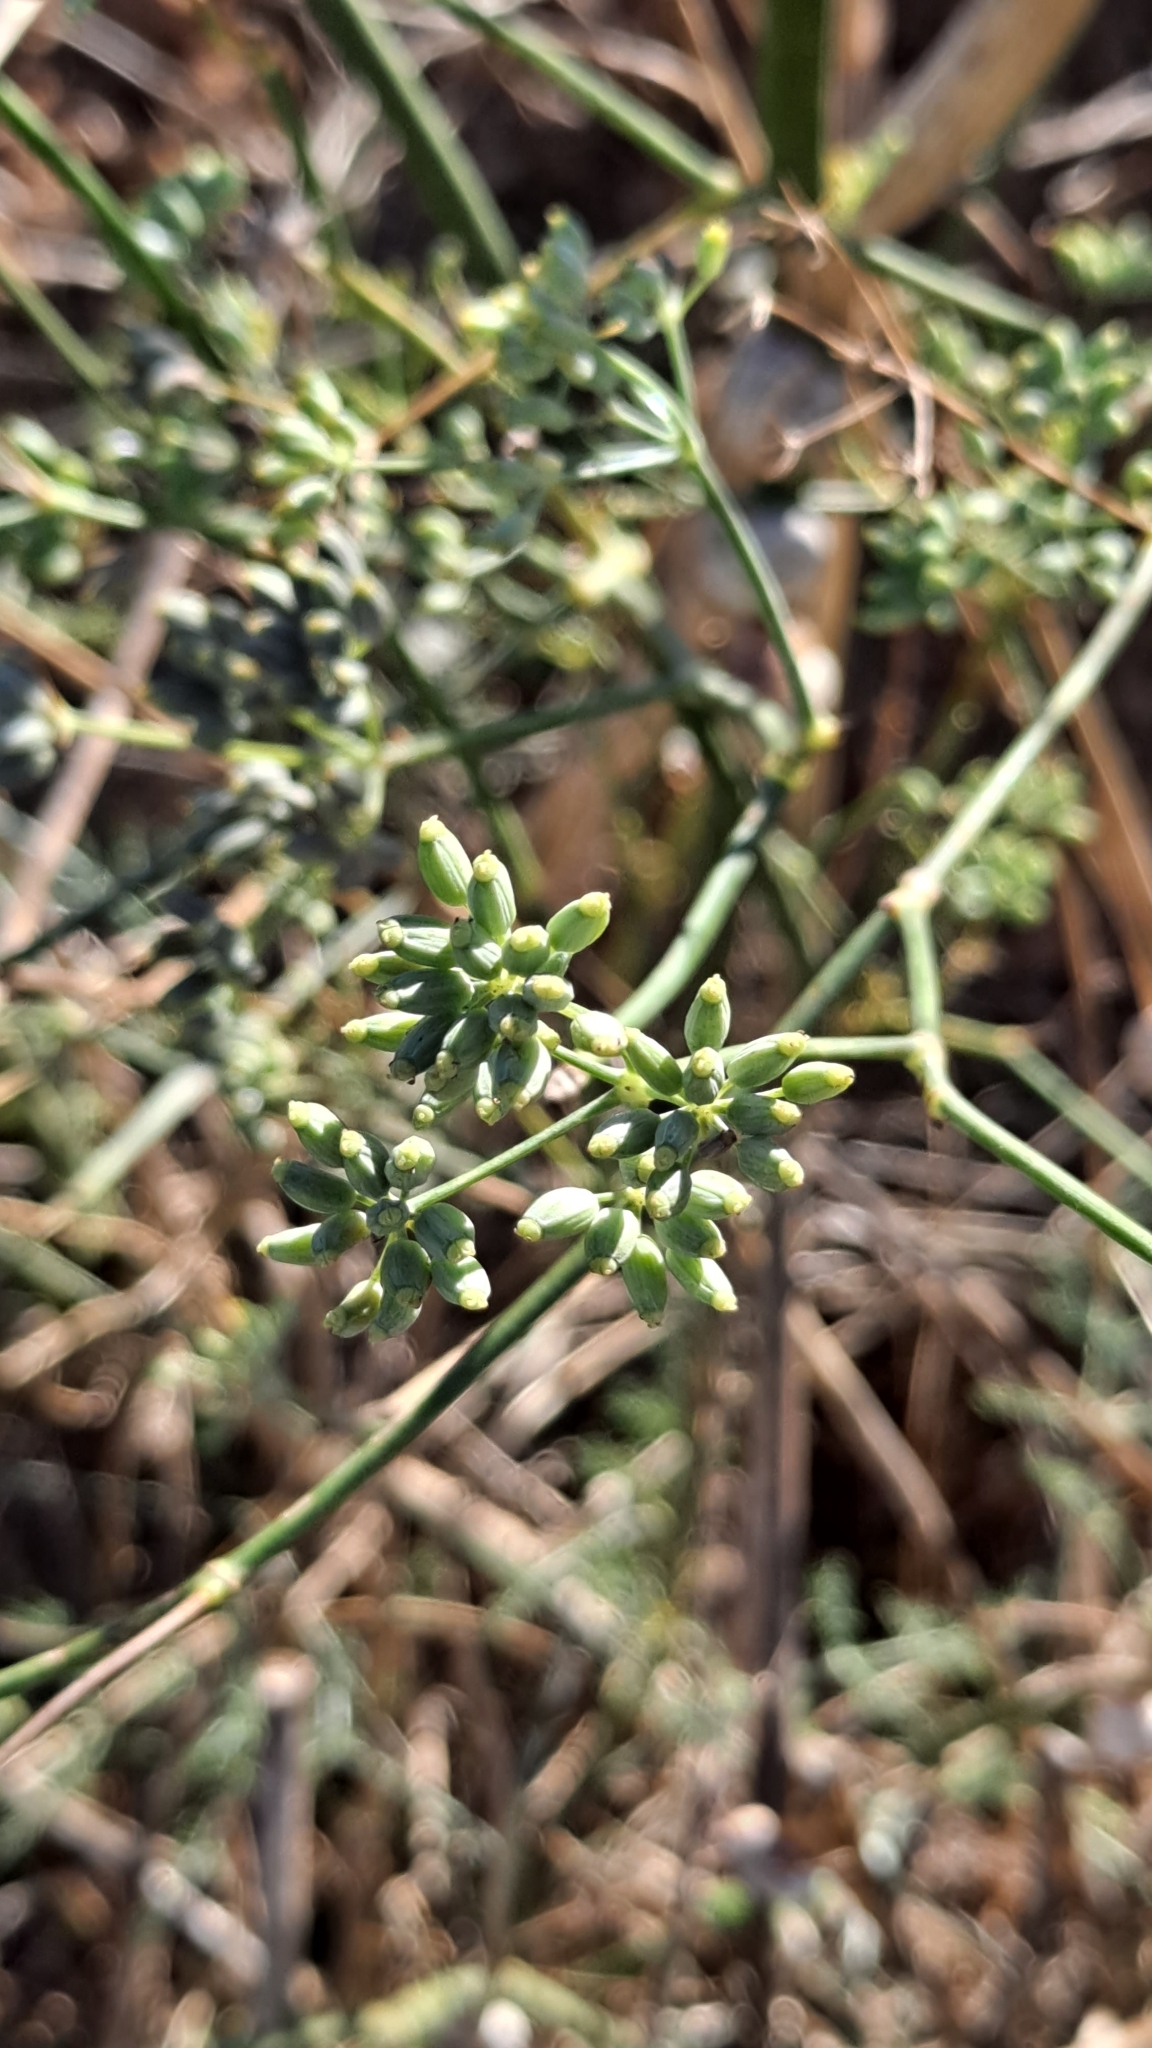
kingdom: Plantae
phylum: Tracheophyta
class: Magnoliopsida
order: Apiales
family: Apiaceae
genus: Foeniculum
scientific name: Foeniculum vulgare
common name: Fennel
